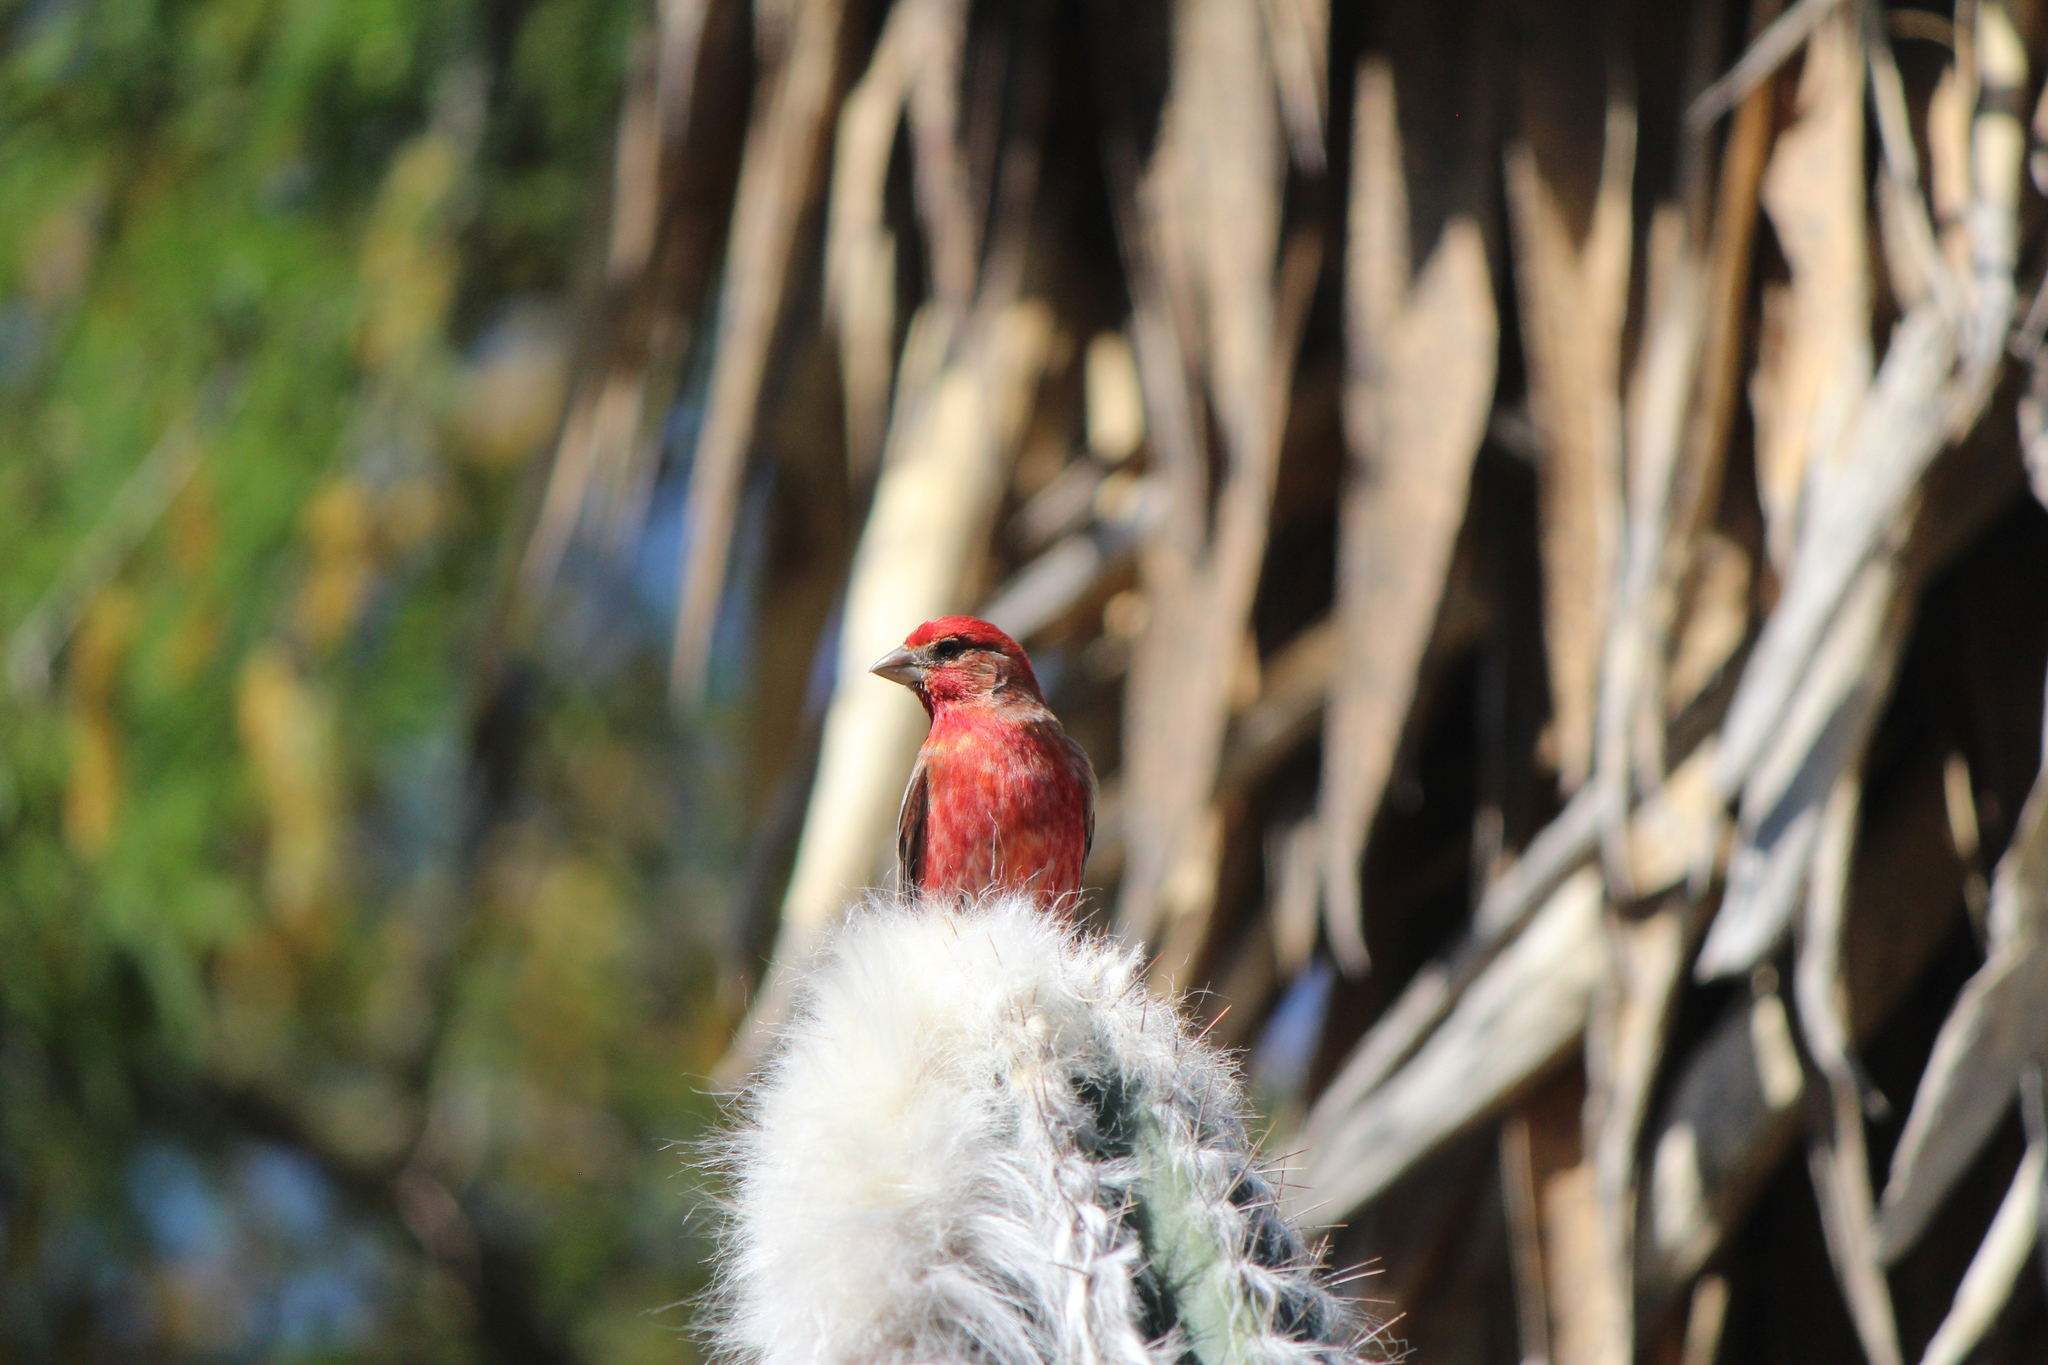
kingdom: Animalia
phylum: Chordata
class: Aves
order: Passeriformes
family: Fringillidae
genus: Haemorhous
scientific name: Haemorhous mexicanus
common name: House finch
